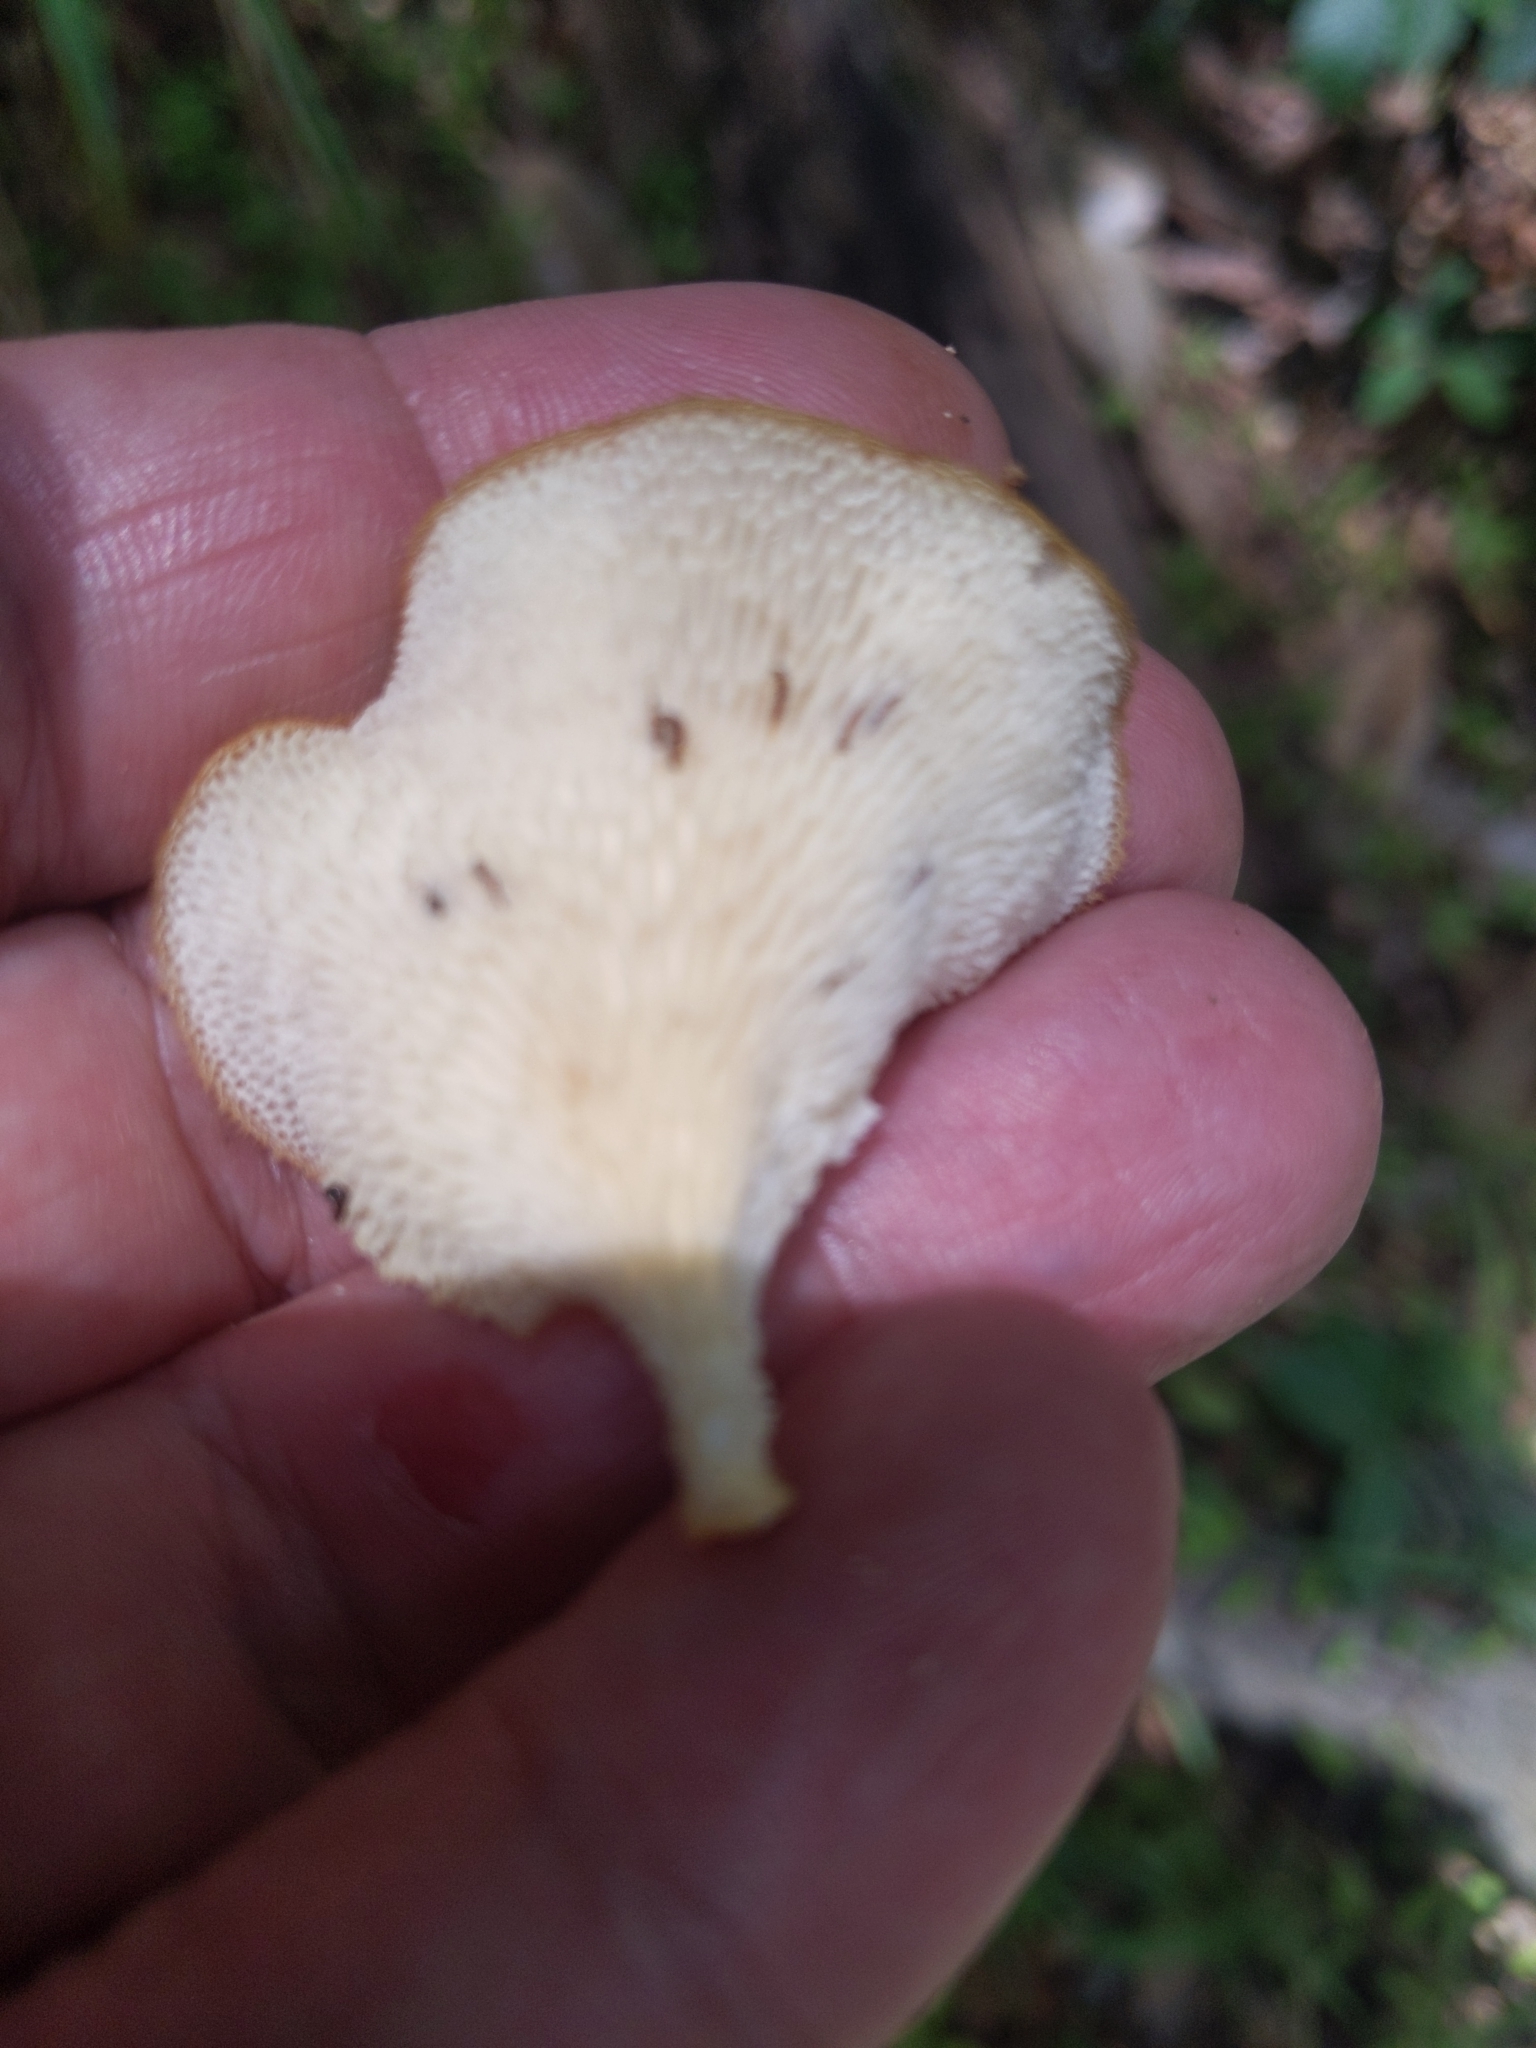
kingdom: Fungi
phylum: Basidiomycota
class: Agaricomycetes
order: Polyporales
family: Polyporaceae
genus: Favolus
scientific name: Favolus tenuiculus
